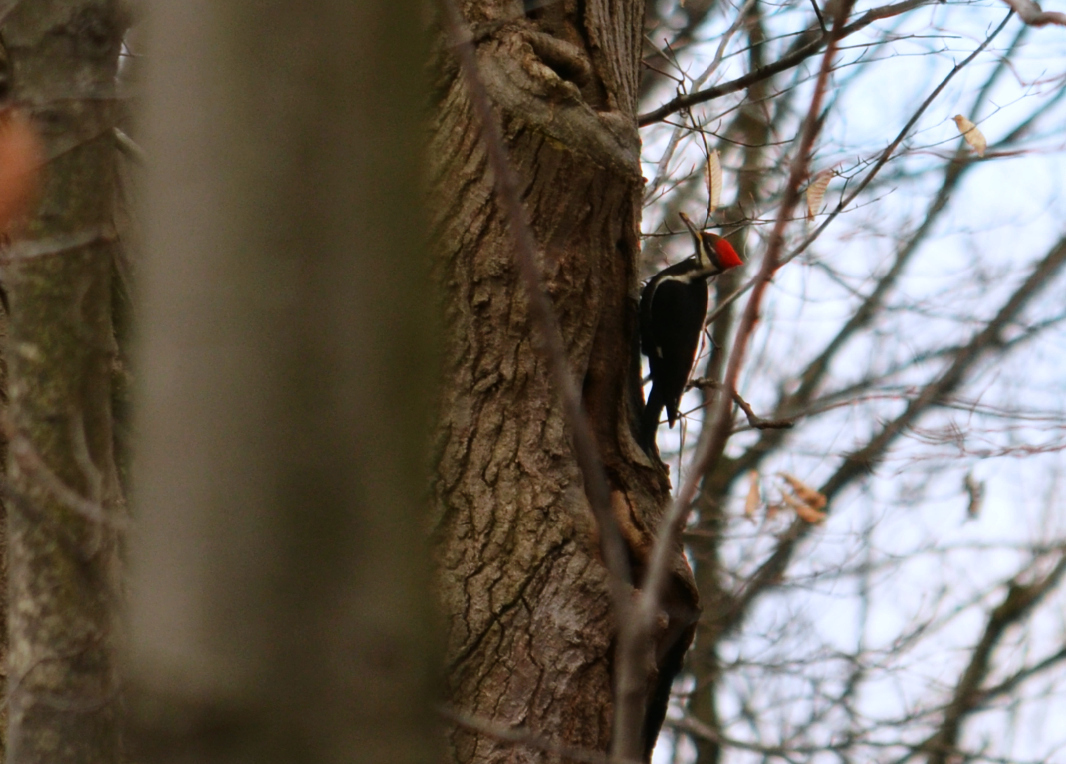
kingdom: Animalia
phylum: Chordata
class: Aves
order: Piciformes
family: Picidae
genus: Dryocopus
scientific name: Dryocopus pileatus
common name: Pileated woodpecker
